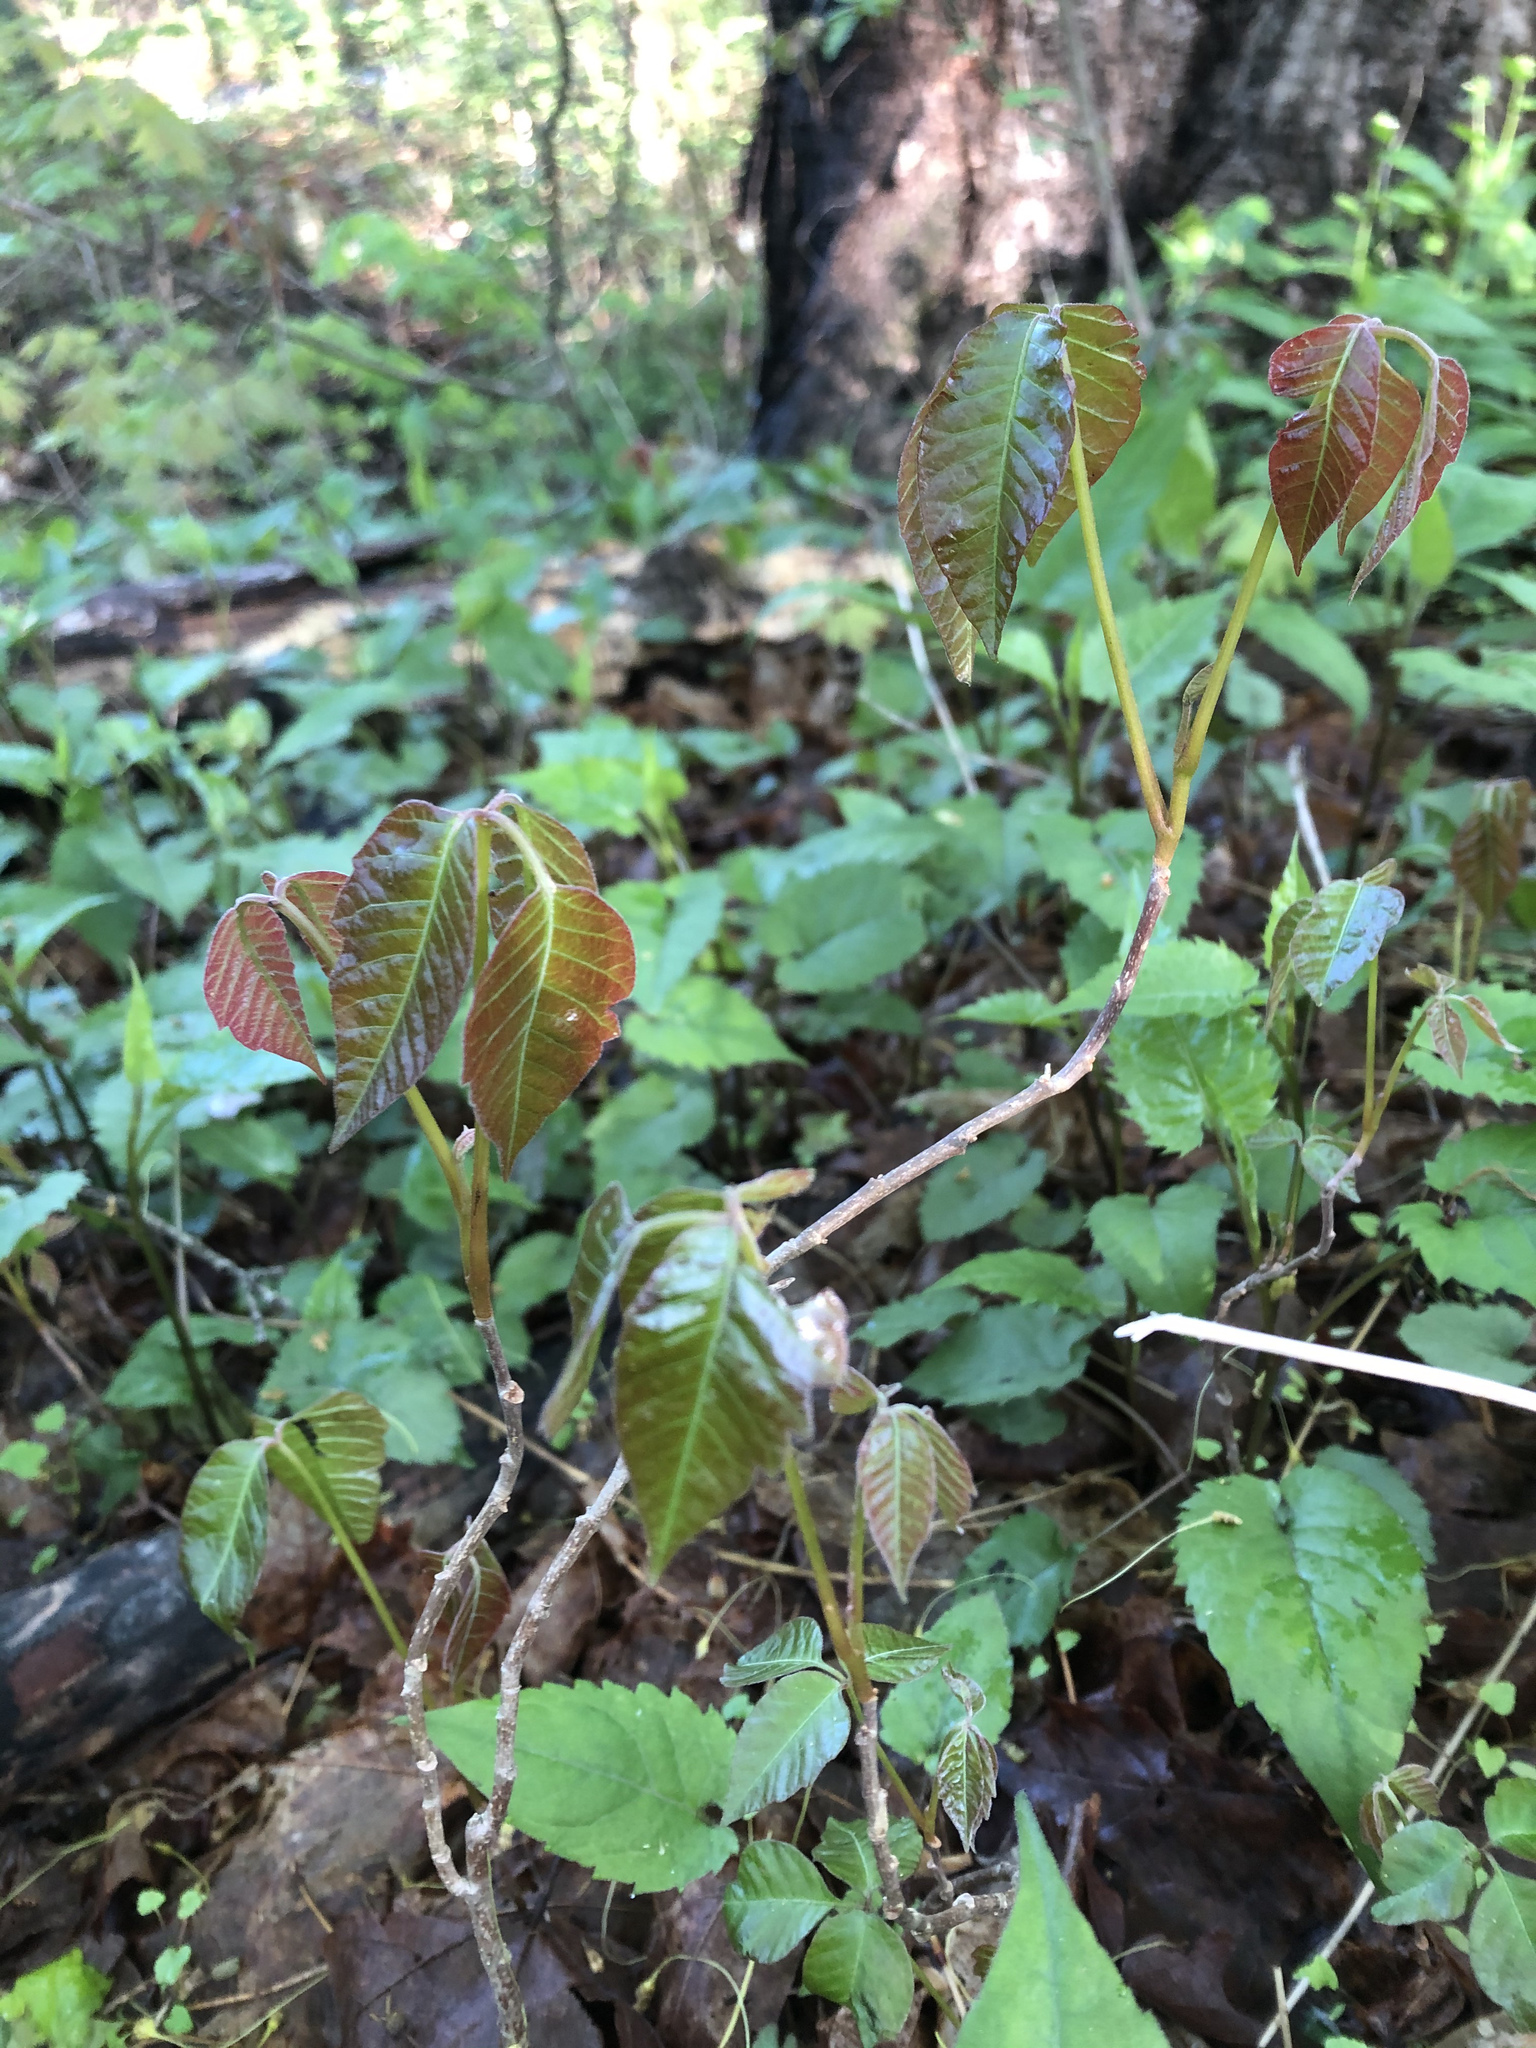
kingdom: Plantae
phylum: Tracheophyta
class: Magnoliopsida
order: Sapindales
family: Anacardiaceae
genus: Toxicodendron
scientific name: Toxicodendron radicans
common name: Poison ivy
